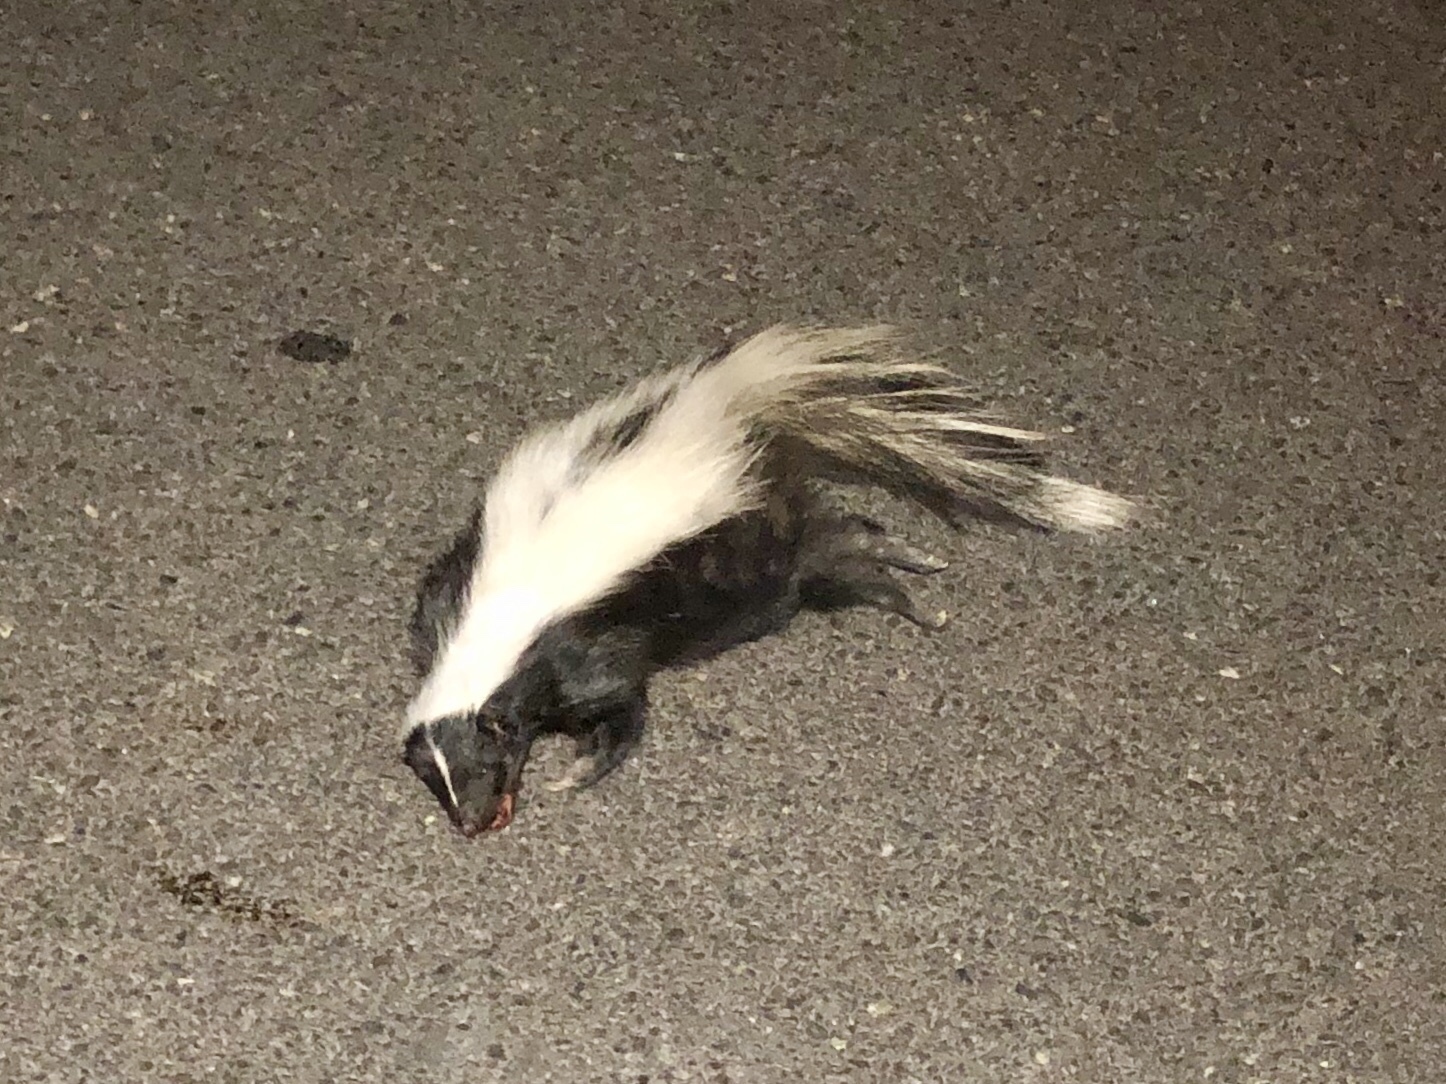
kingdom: Animalia
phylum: Chordata
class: Mammalia
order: Carnivora
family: Mephitidae
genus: Mephitis
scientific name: Mephitis mephitis
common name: Striped skunk
